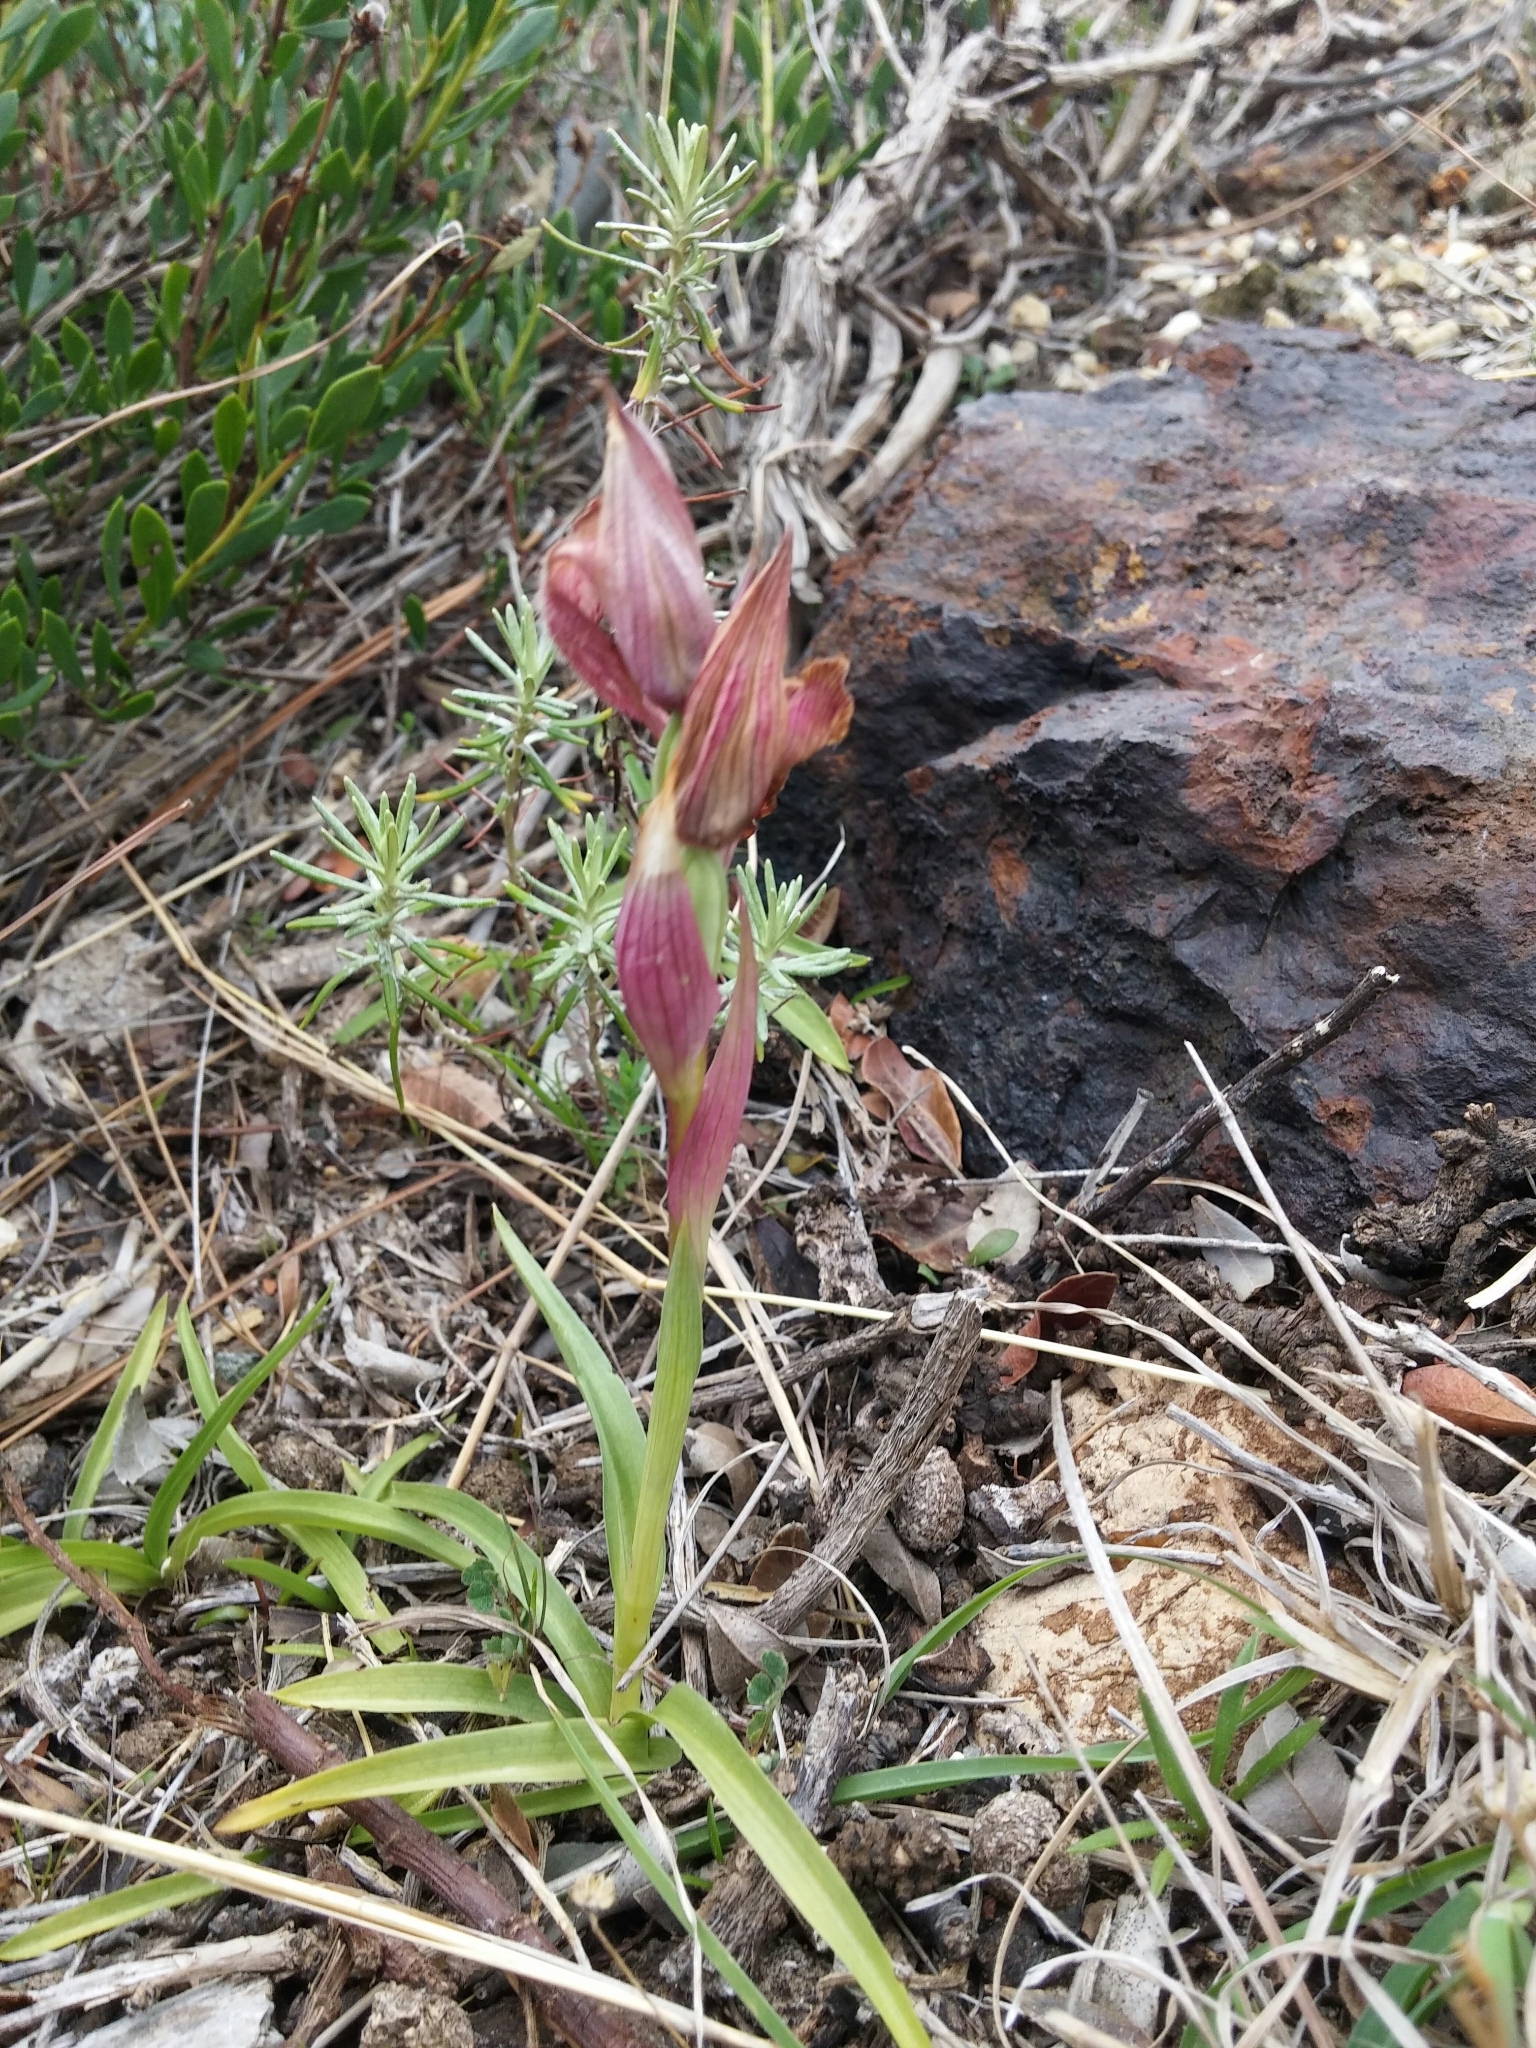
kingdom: Plantae
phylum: Tracheophyta
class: Liliopsida
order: Asparagales
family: Orchidaceae
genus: Serapias
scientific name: Serapias lingua
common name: Tongue-orchid
